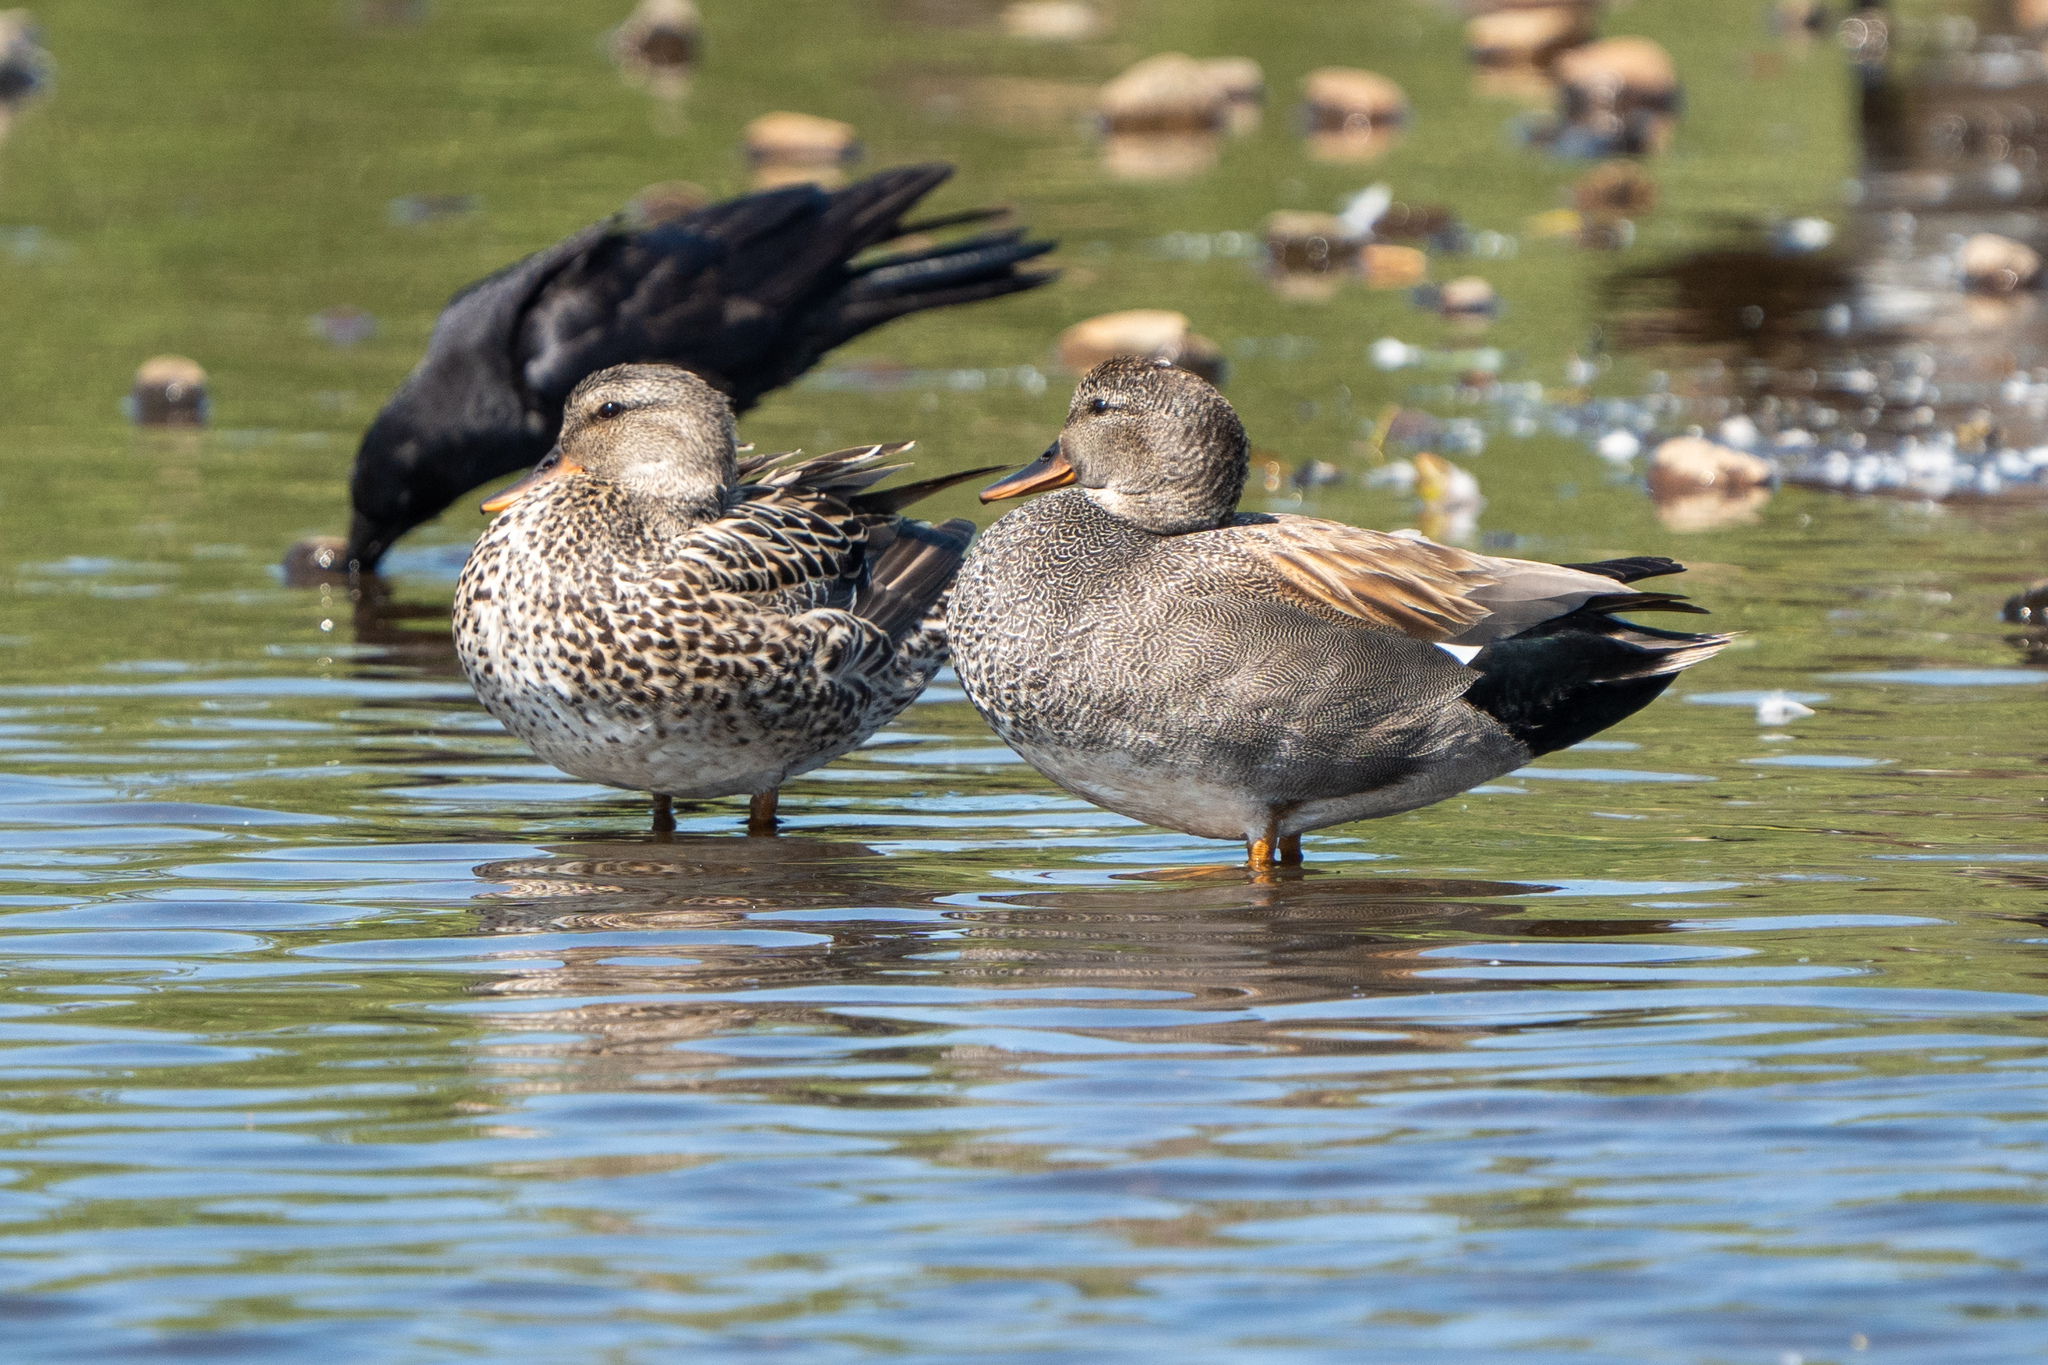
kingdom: Animalia
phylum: Chordata
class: Aves
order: Anseriformes
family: Anatidae
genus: Mareca
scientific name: Mareca strepera
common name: Gadwall
